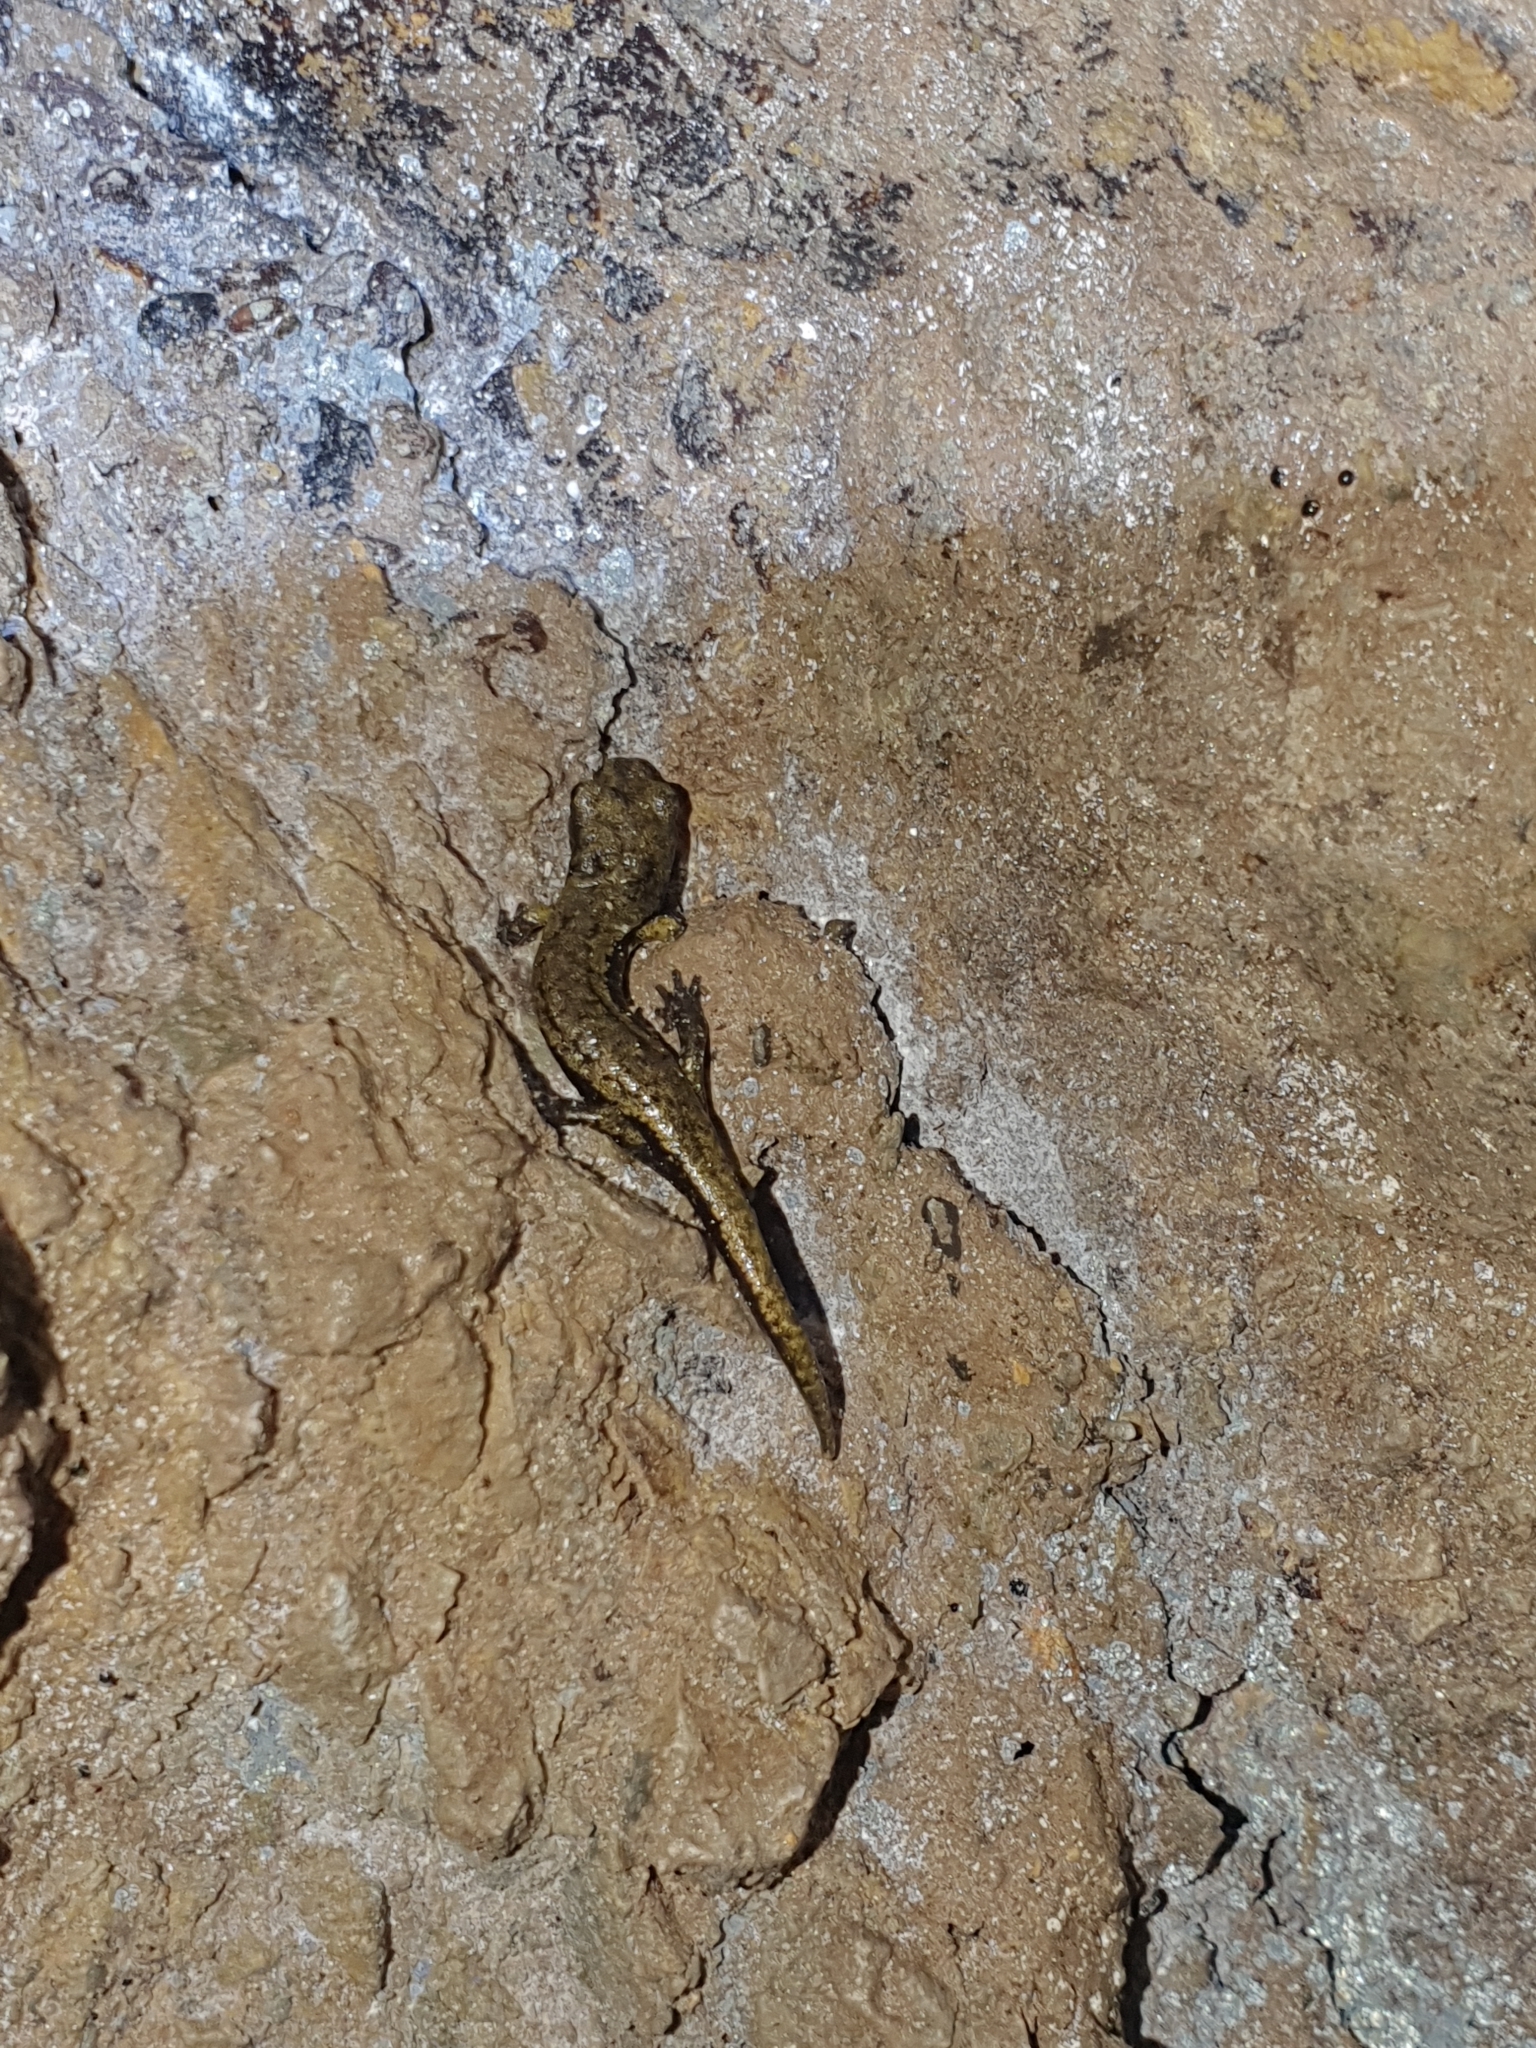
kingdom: Animalia
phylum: Chordata
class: Amphibia
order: Caudata
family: Plethodontidae
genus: Speleomantes
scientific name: Speleomantes strinatii
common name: French cave salamander
